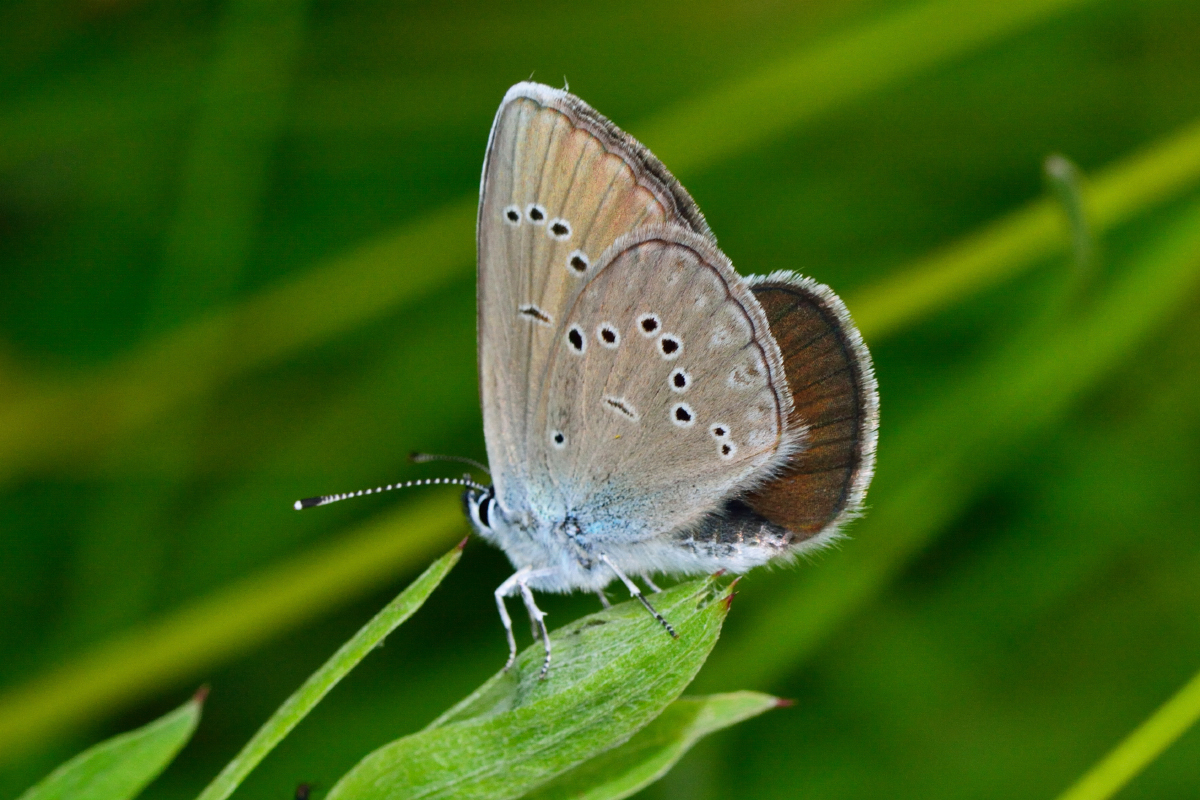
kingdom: Animalia
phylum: Arthropoda
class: Insecta
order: Lepidoptera
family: Lycaenidae
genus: Cyaniris
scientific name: Cyaniris semiargus
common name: Mazarine blue
